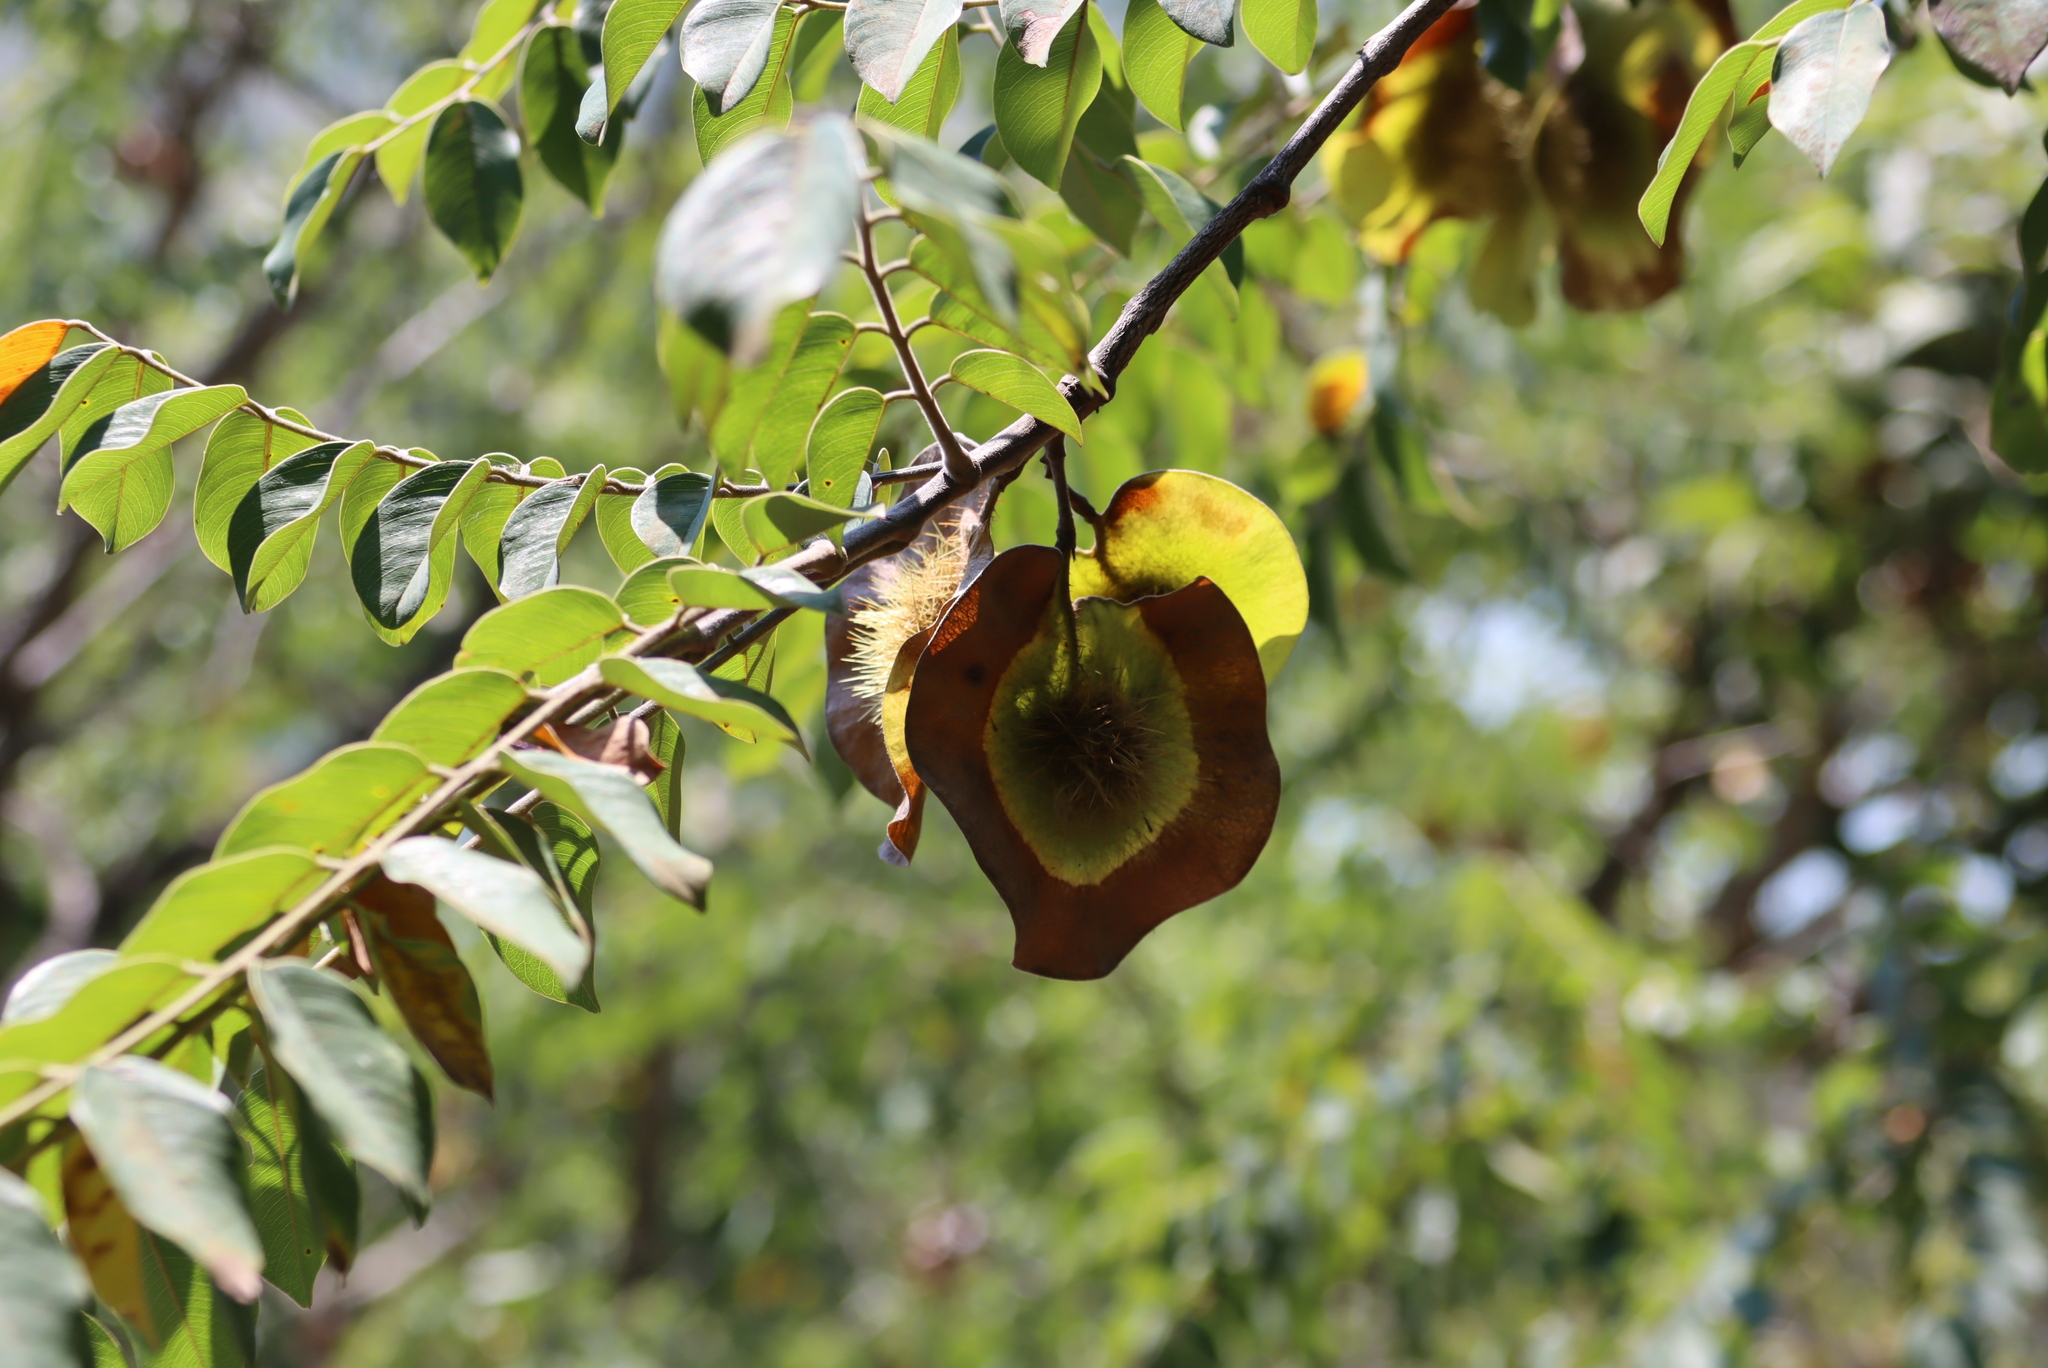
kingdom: Plantae
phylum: Tracheophyta
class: Magnoliopsida
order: Fabales
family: Fabaceae
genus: Pterocarpus
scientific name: Pterocarpus angolensis
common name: Bloodwood tree
